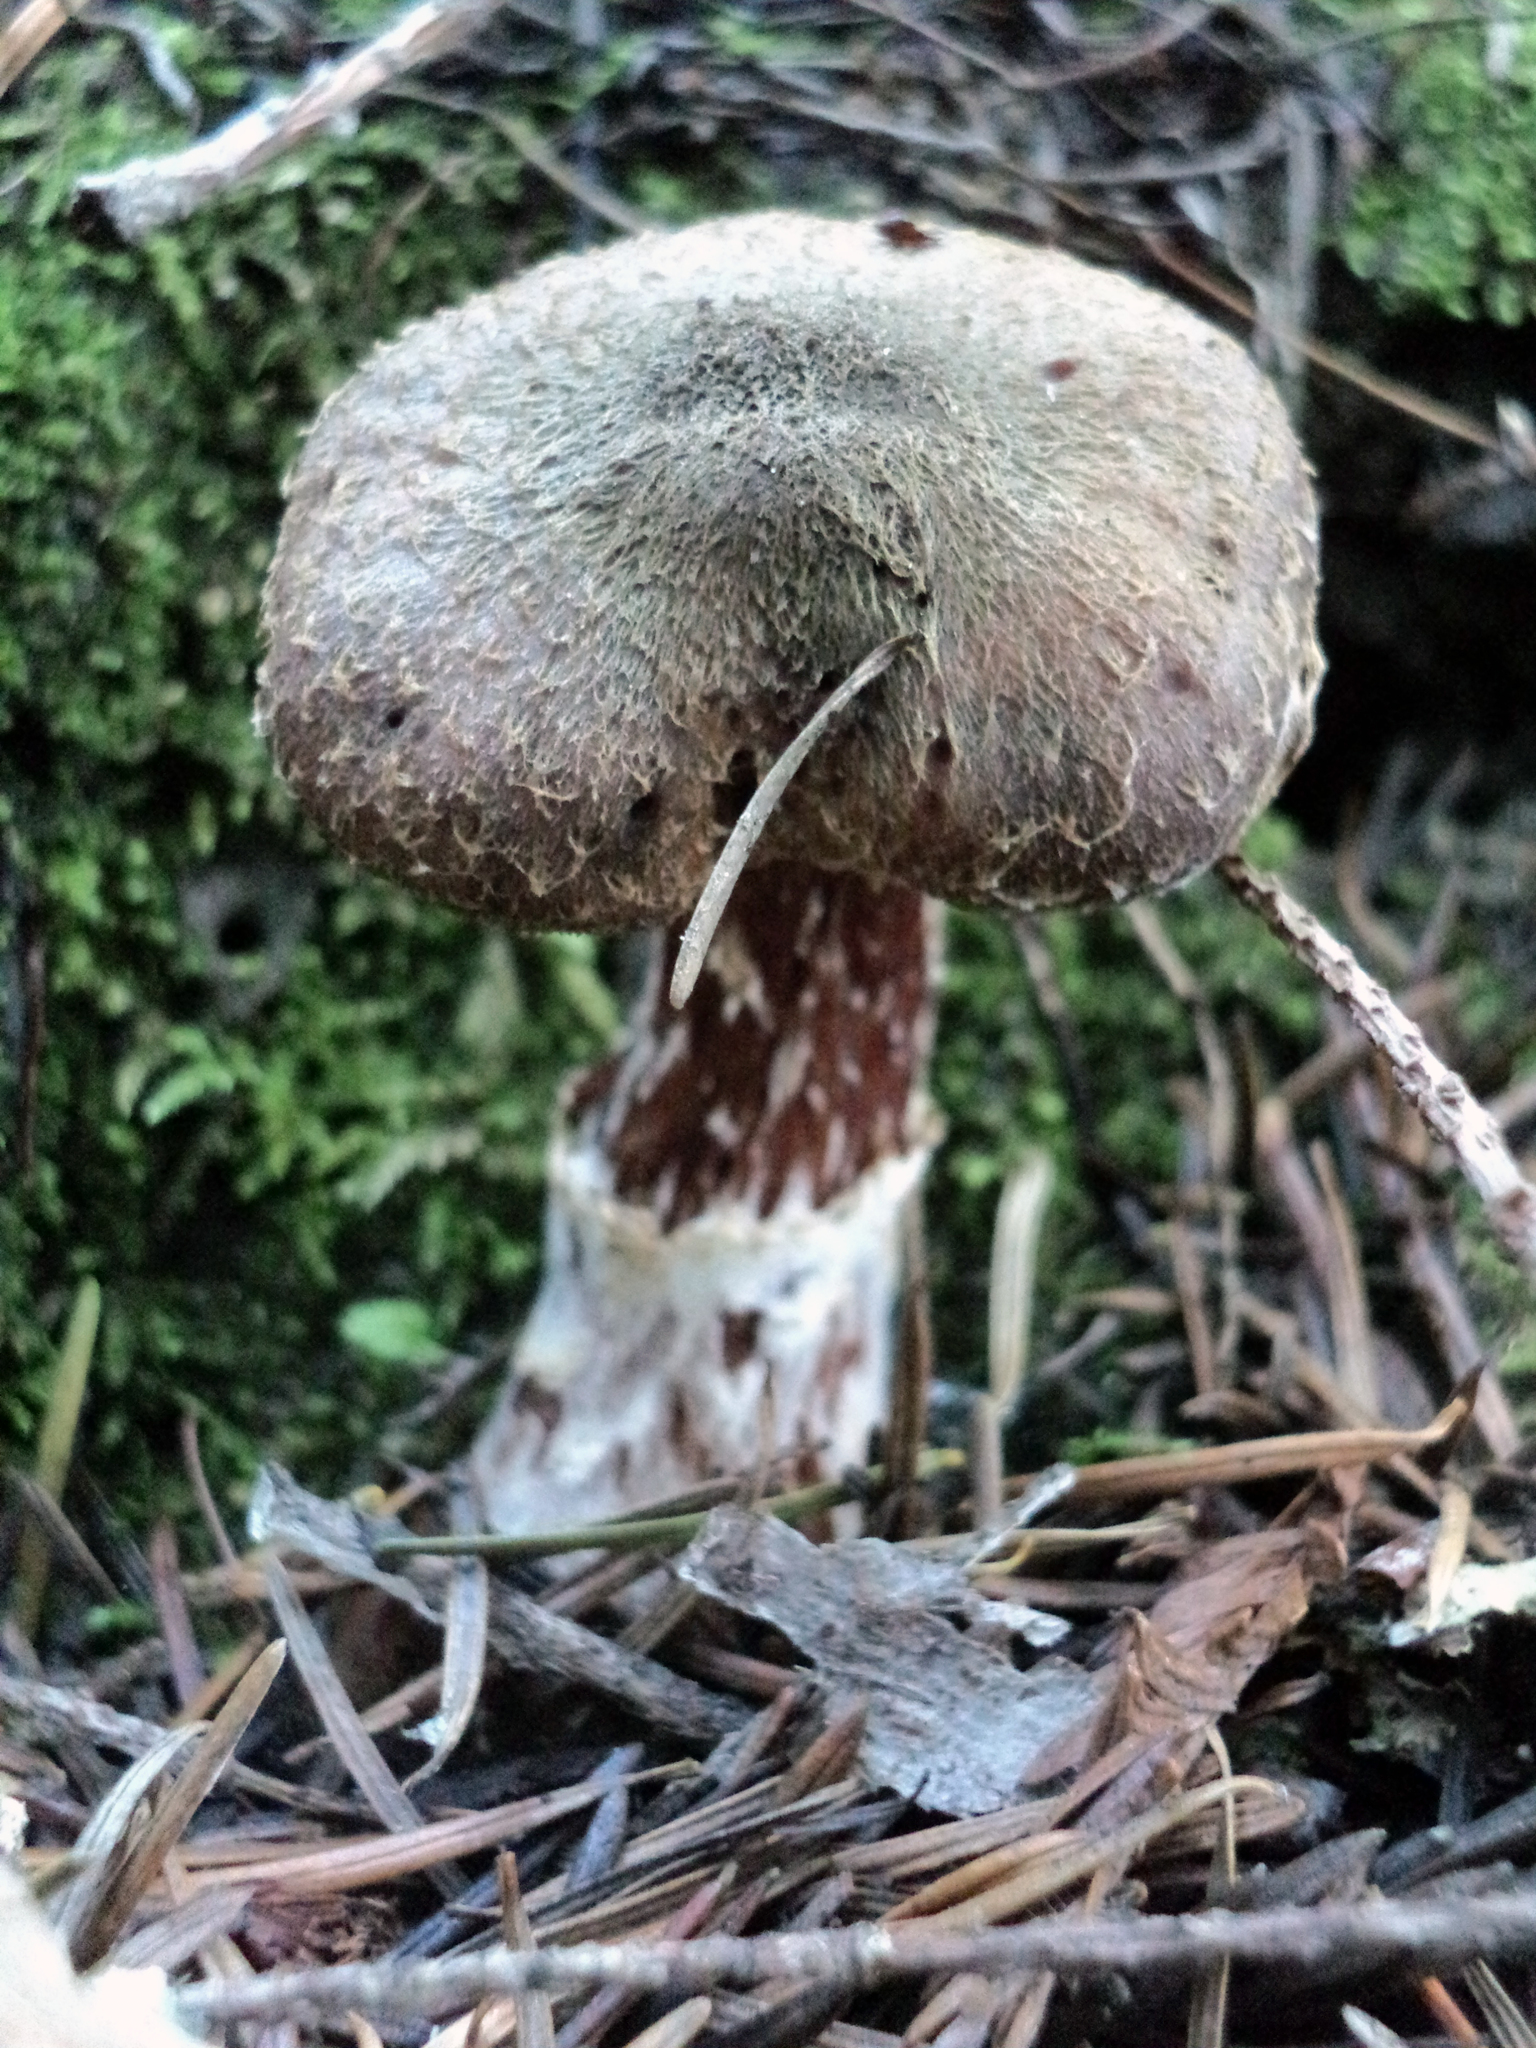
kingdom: Fungi
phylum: Basidiomycota
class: Agaricomycetes
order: Agaricales
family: Physalacriaceae
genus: Armillaria
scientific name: Armillaria sinapina
